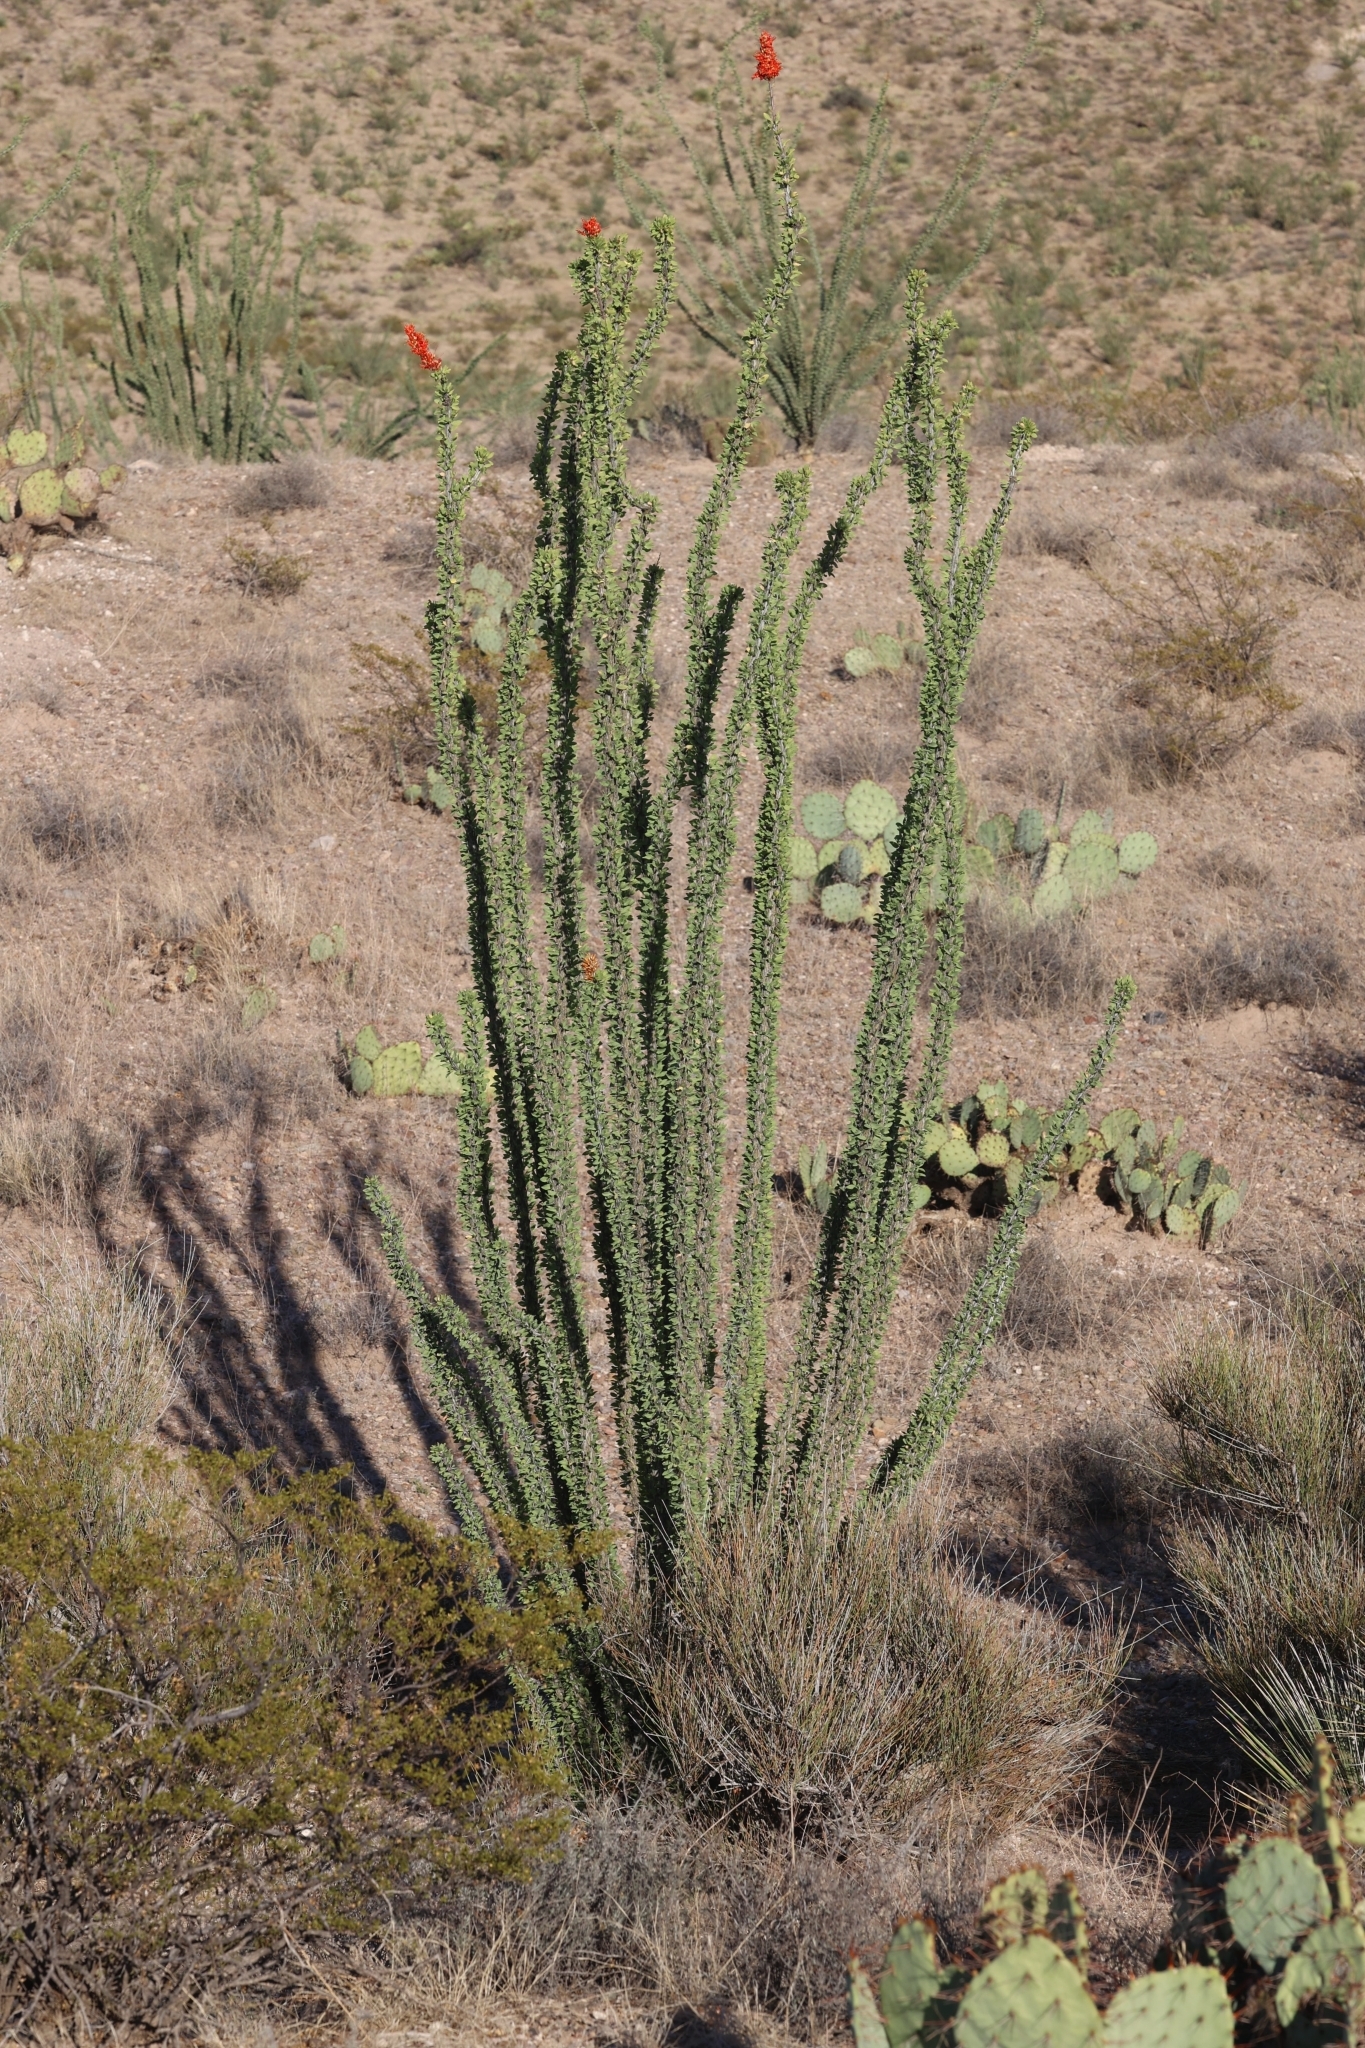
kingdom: Plantae
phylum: Tracheophyta
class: Magnoliopsida
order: Ericales
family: Fouquieriaceae
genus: Fouquieria
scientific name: Fouquieria splendens
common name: Vine-cactus
